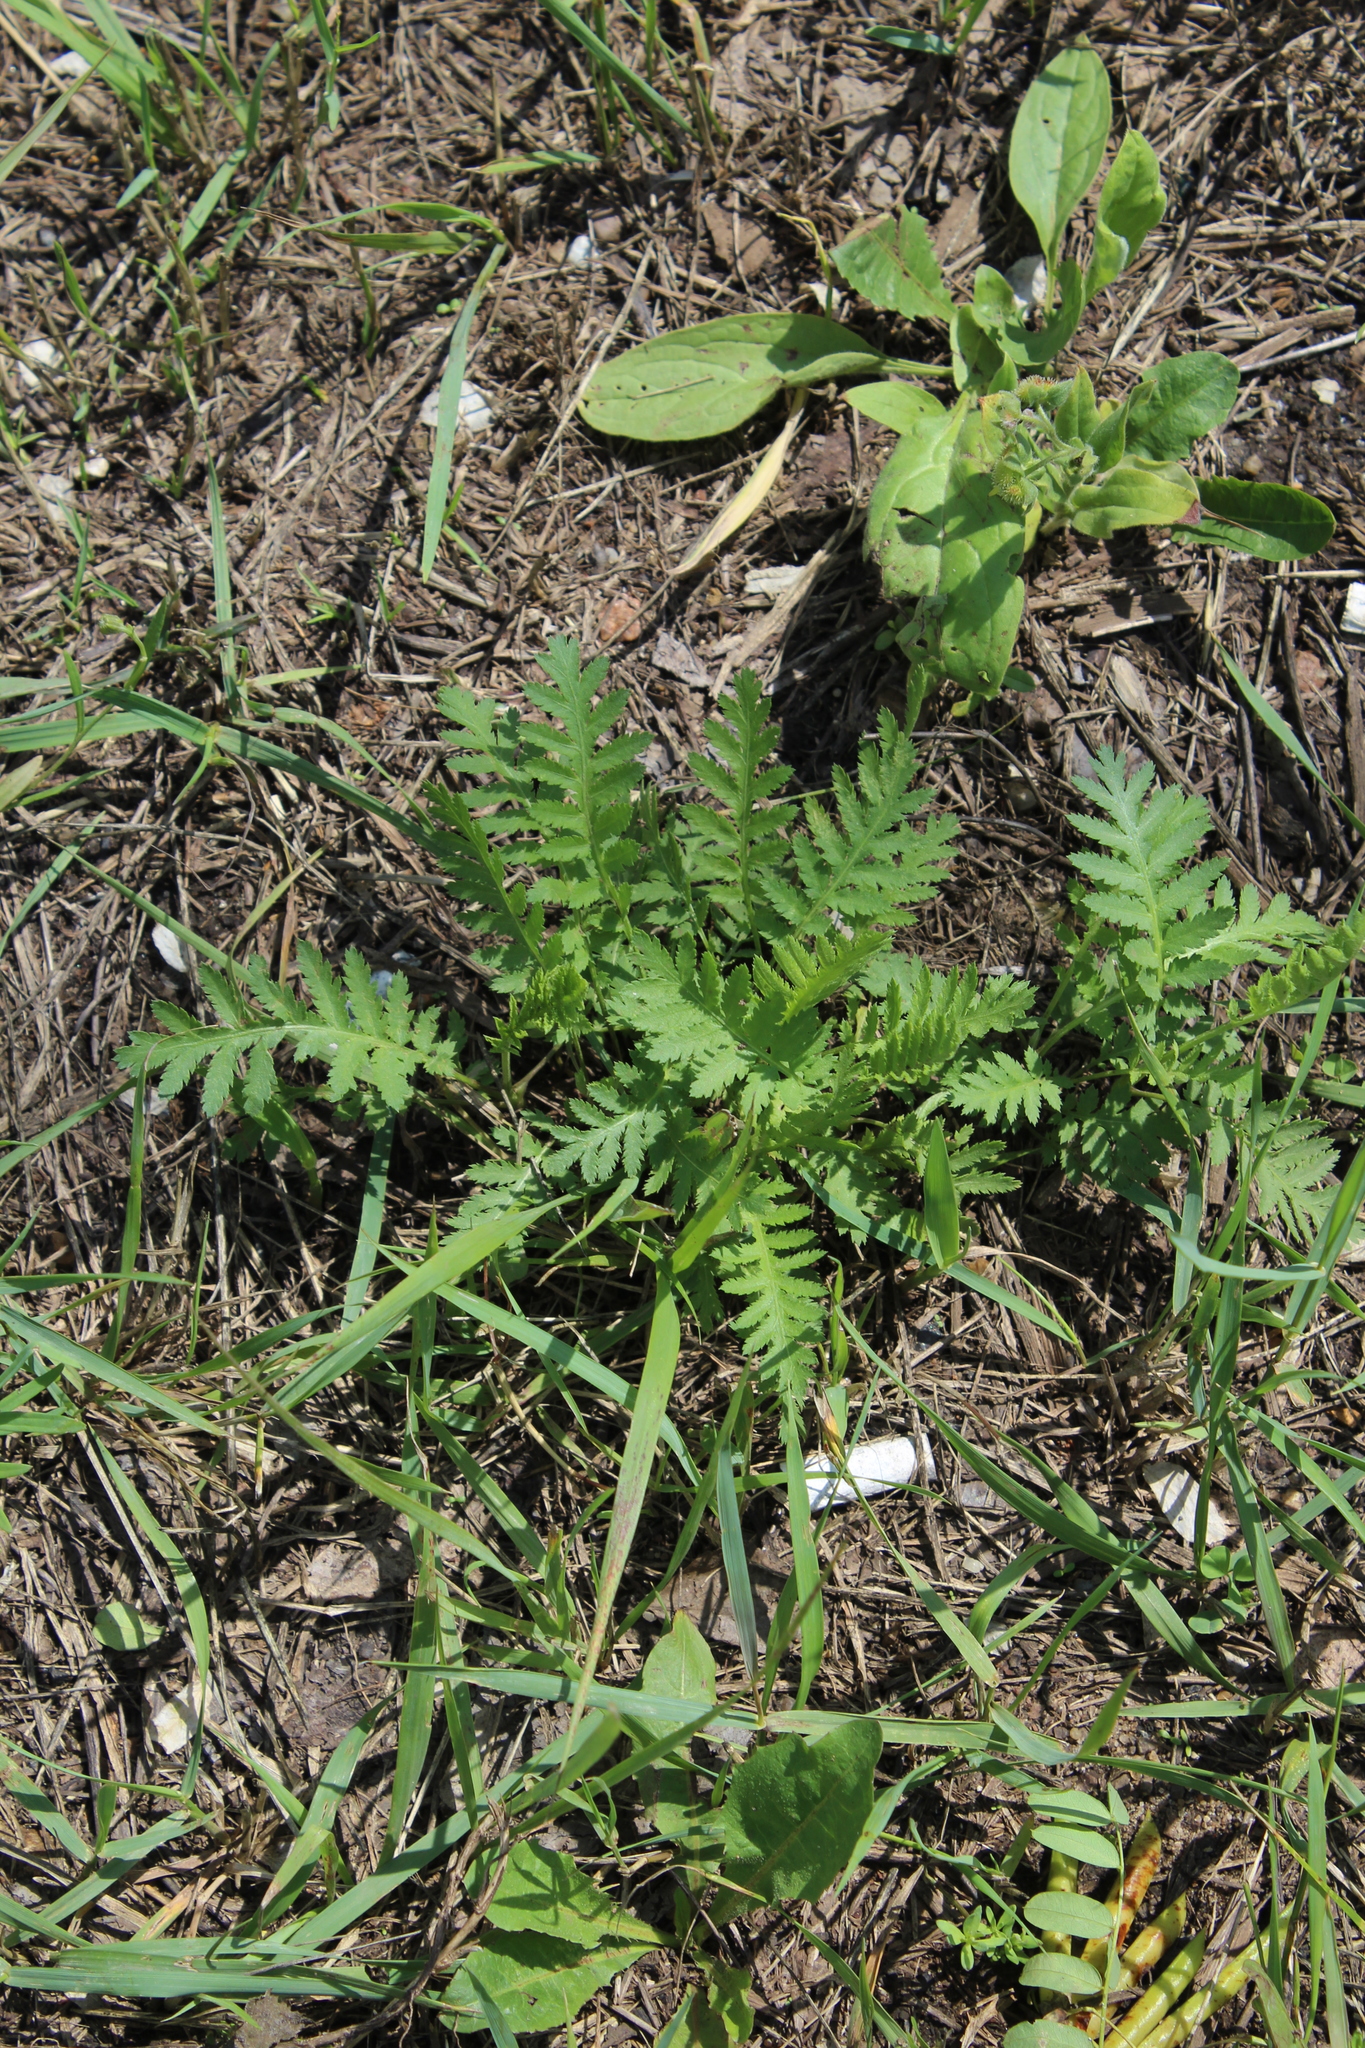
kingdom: Plantae
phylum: Tracheophyta
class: Magnoliopsida
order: Asterales
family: Asteraceae
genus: Tanacetum
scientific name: Tanacetum vulgare
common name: Common tansy
